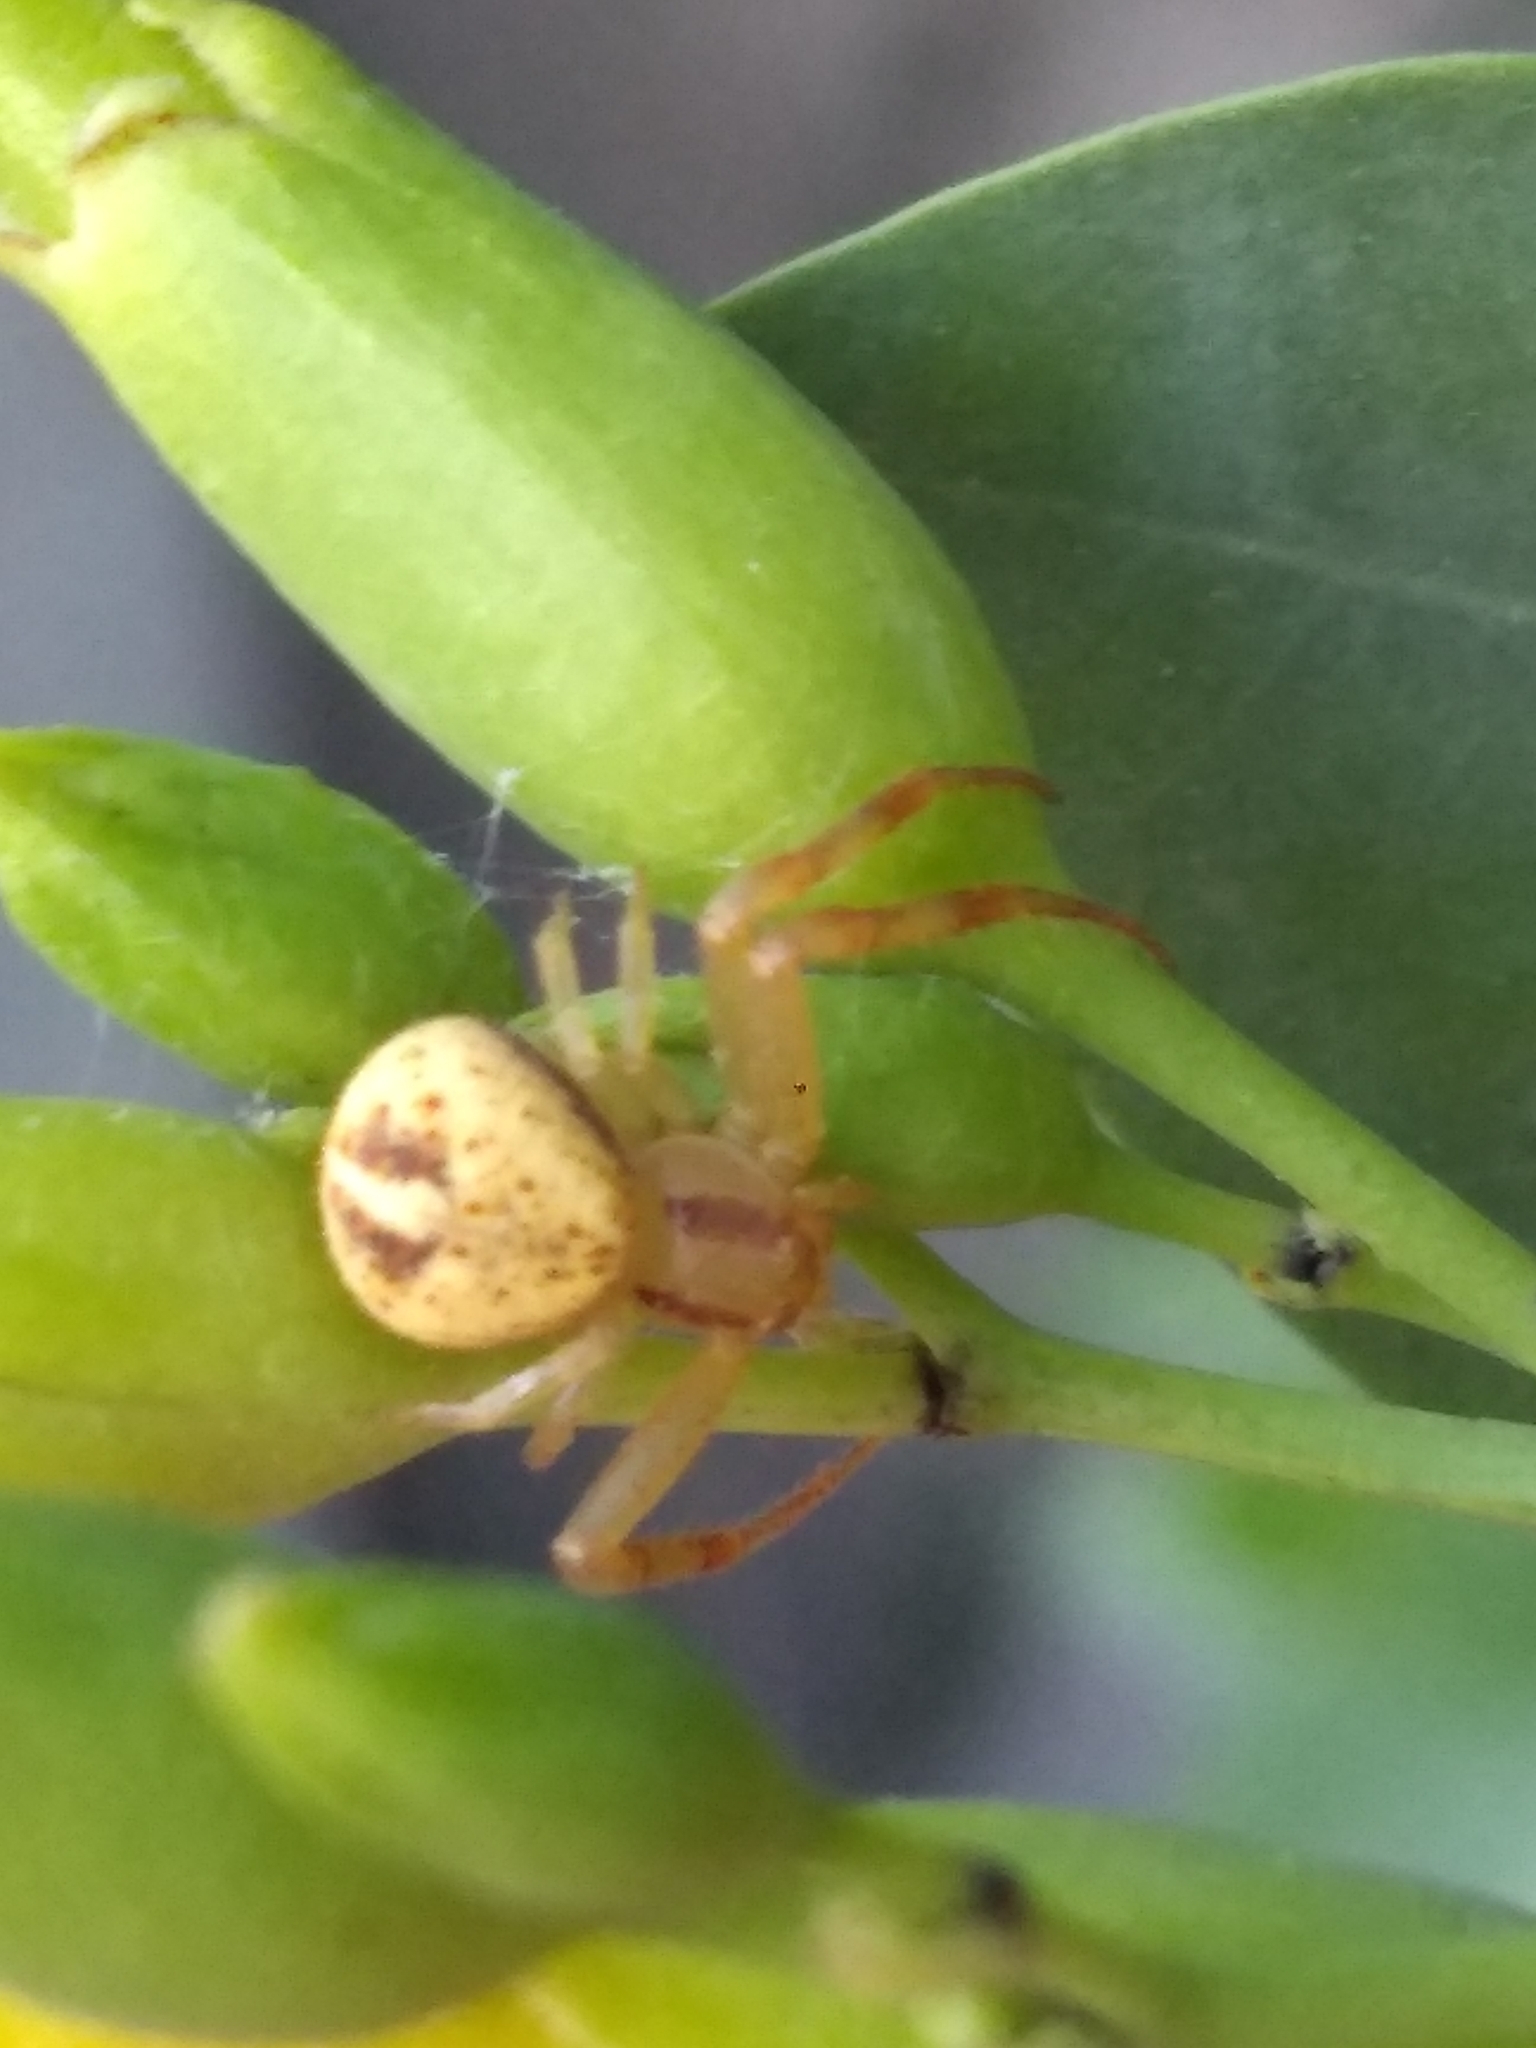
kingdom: Animalia
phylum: Arthropoda
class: Arachnida
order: Araneae
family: Thomisidae
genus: Misumenops
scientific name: Misumenops
